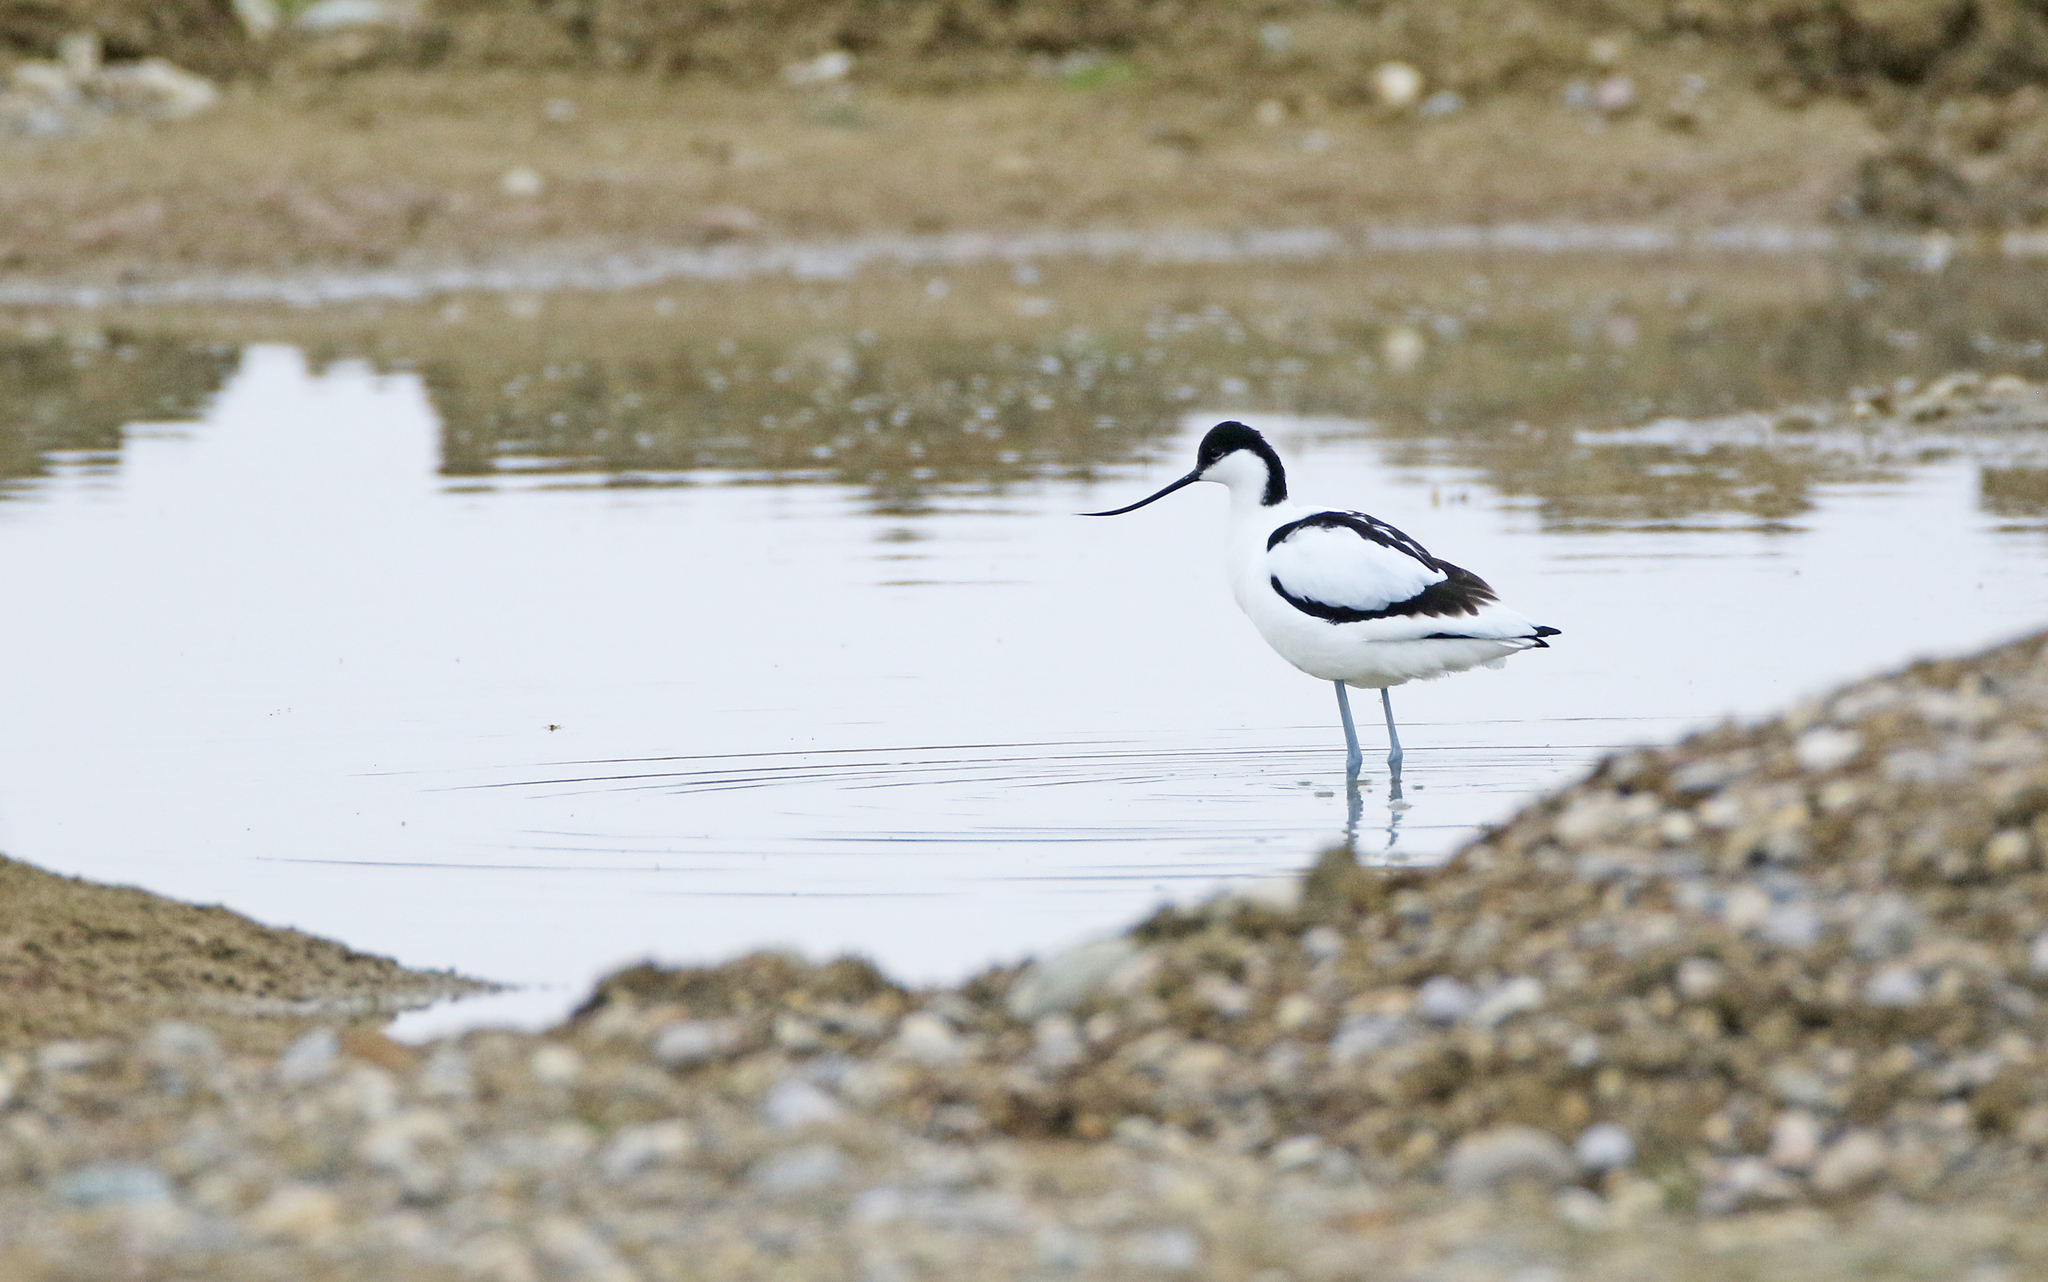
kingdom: Animalia
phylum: Chordata
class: Aves
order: Charadriiformes
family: Recurvirostridae
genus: Recurvirostra
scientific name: Recurvirostra avosetta
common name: Pied avocet
